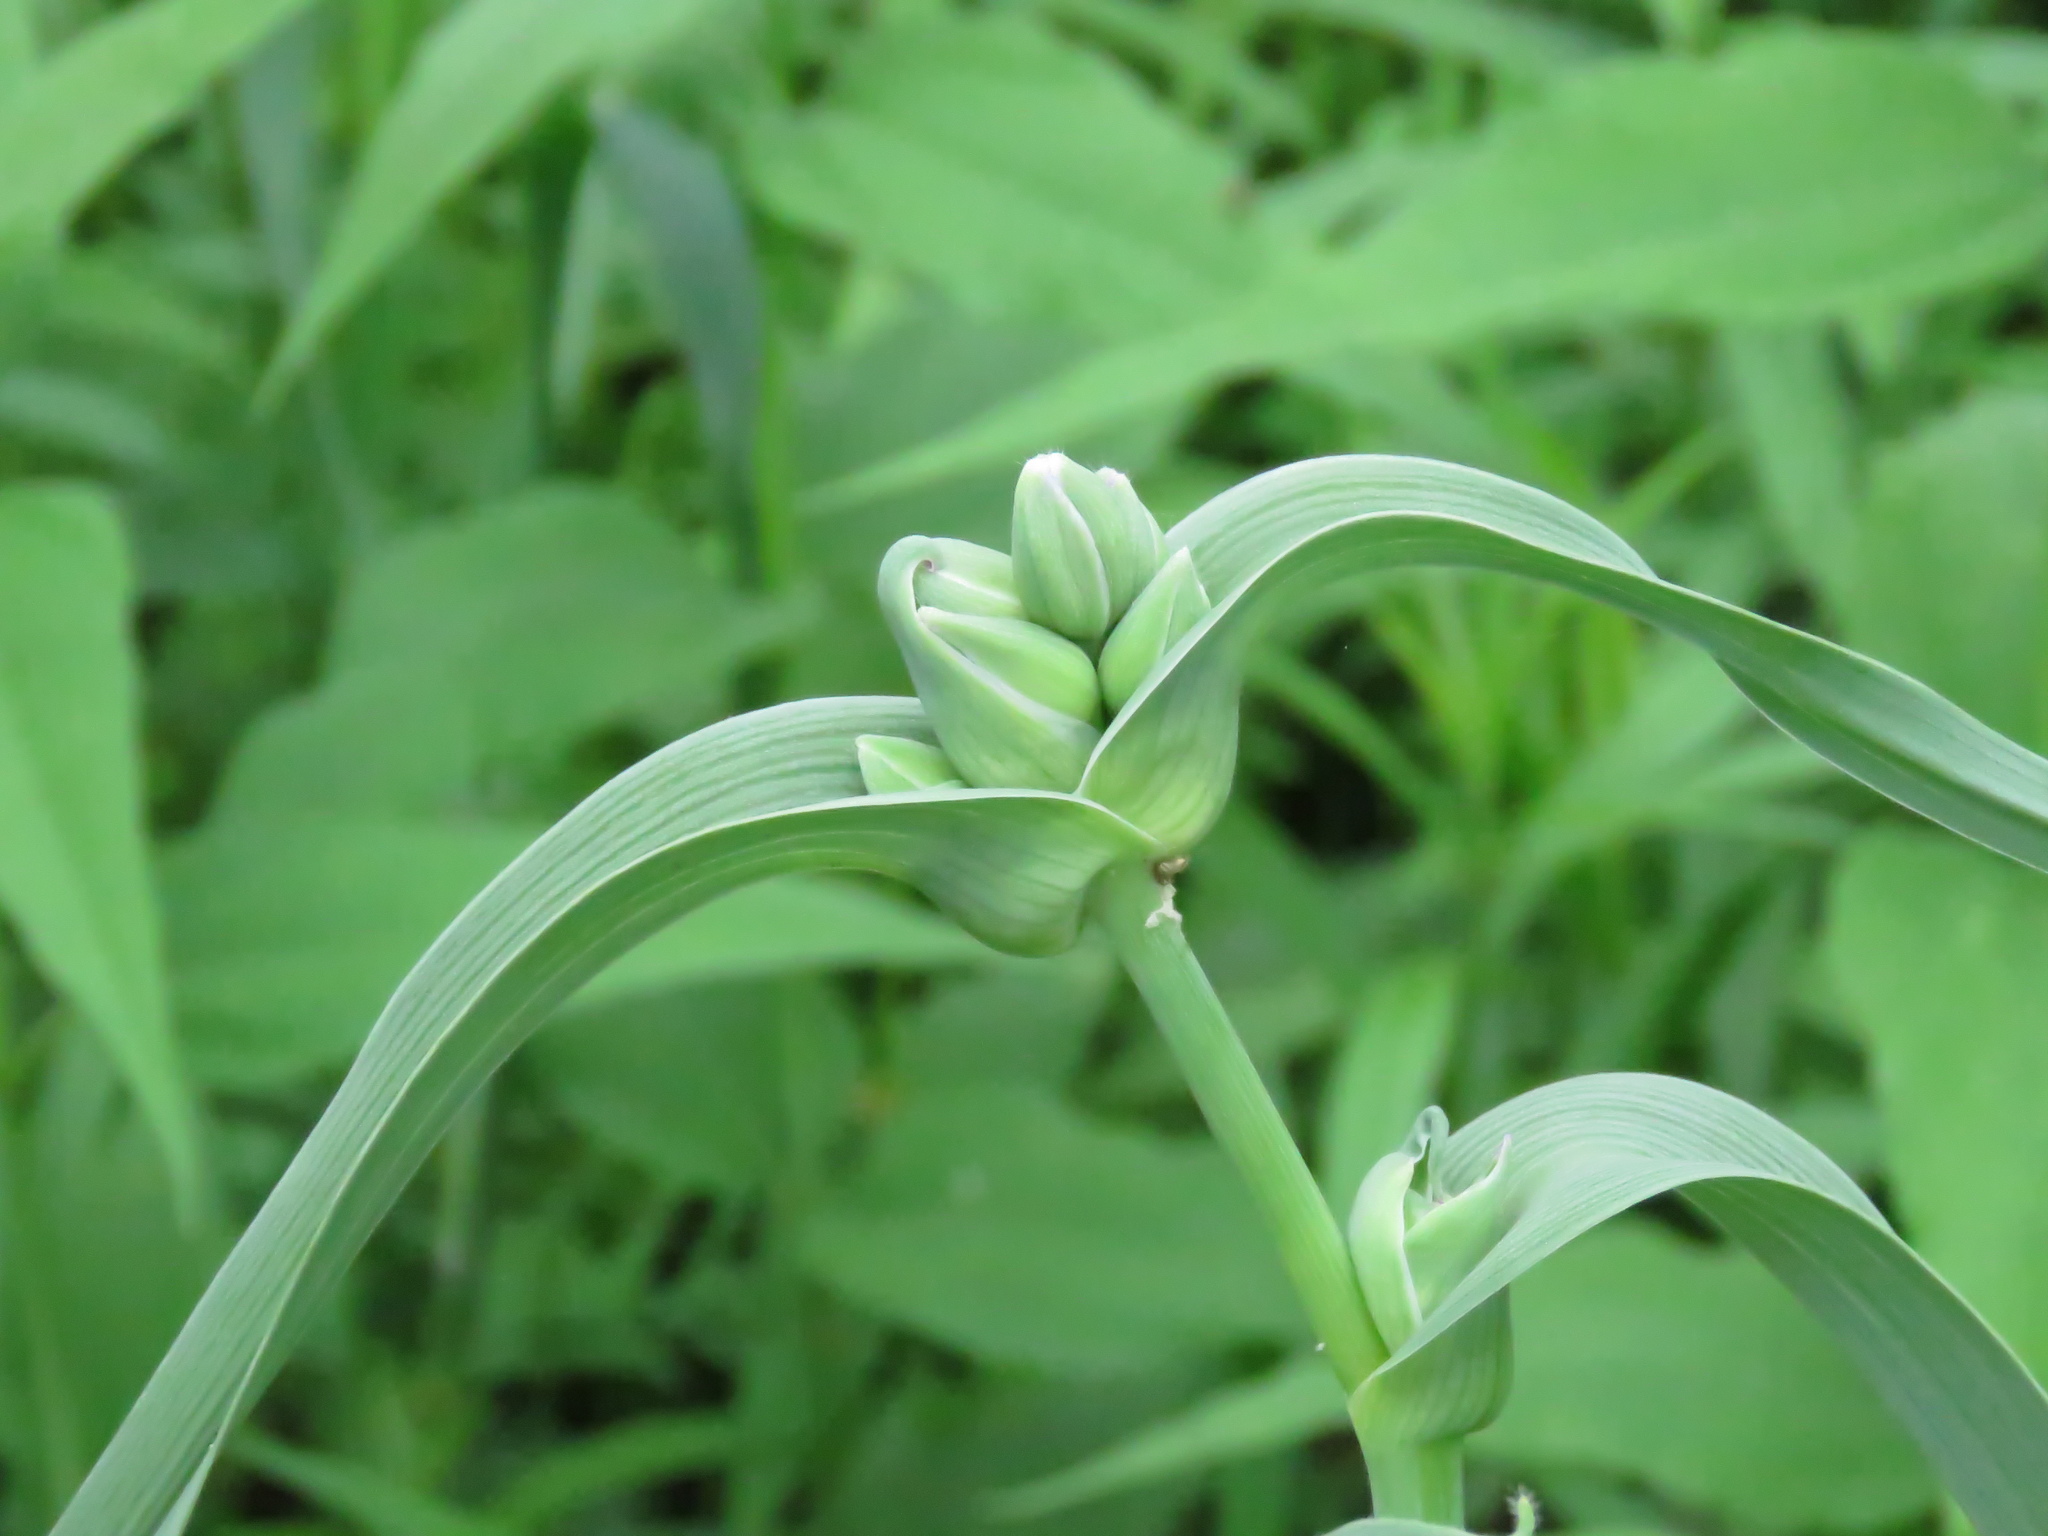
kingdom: Plantae
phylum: Tracheophyta
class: Liliopsida
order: Commelinales
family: Commelinaceae
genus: Tradescantia
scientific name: Tradescantia ohiensis
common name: Ohio spiderwort
